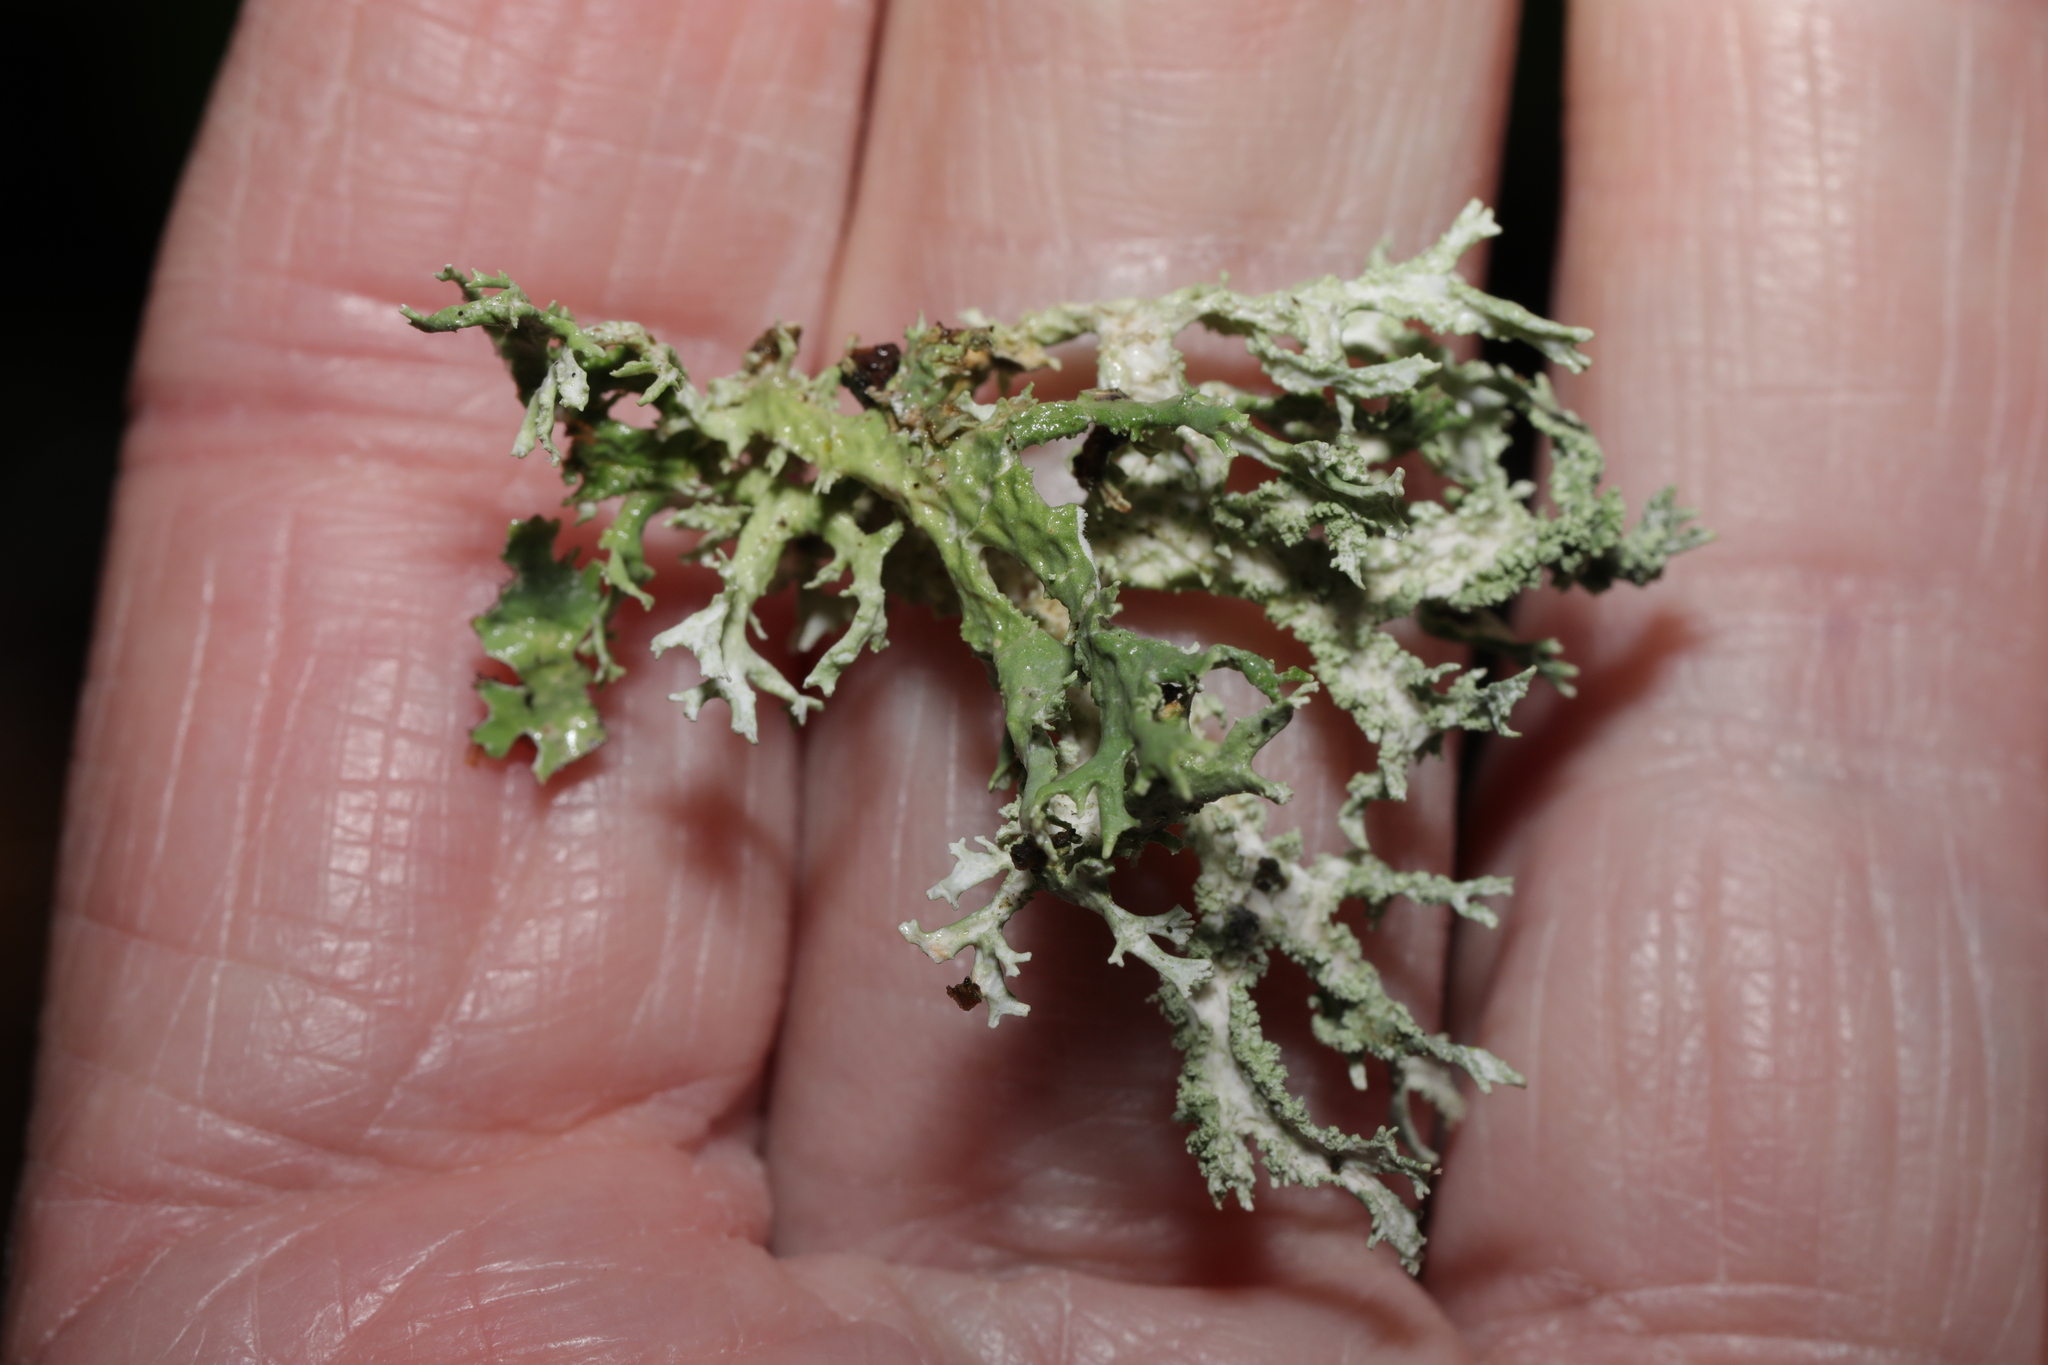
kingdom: Fungi
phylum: Ascomycota
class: Lecanoromycetes
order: Lecanorales
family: Parmeliaceae
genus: Evernia
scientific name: Evernia prunastri
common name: Oak moss
